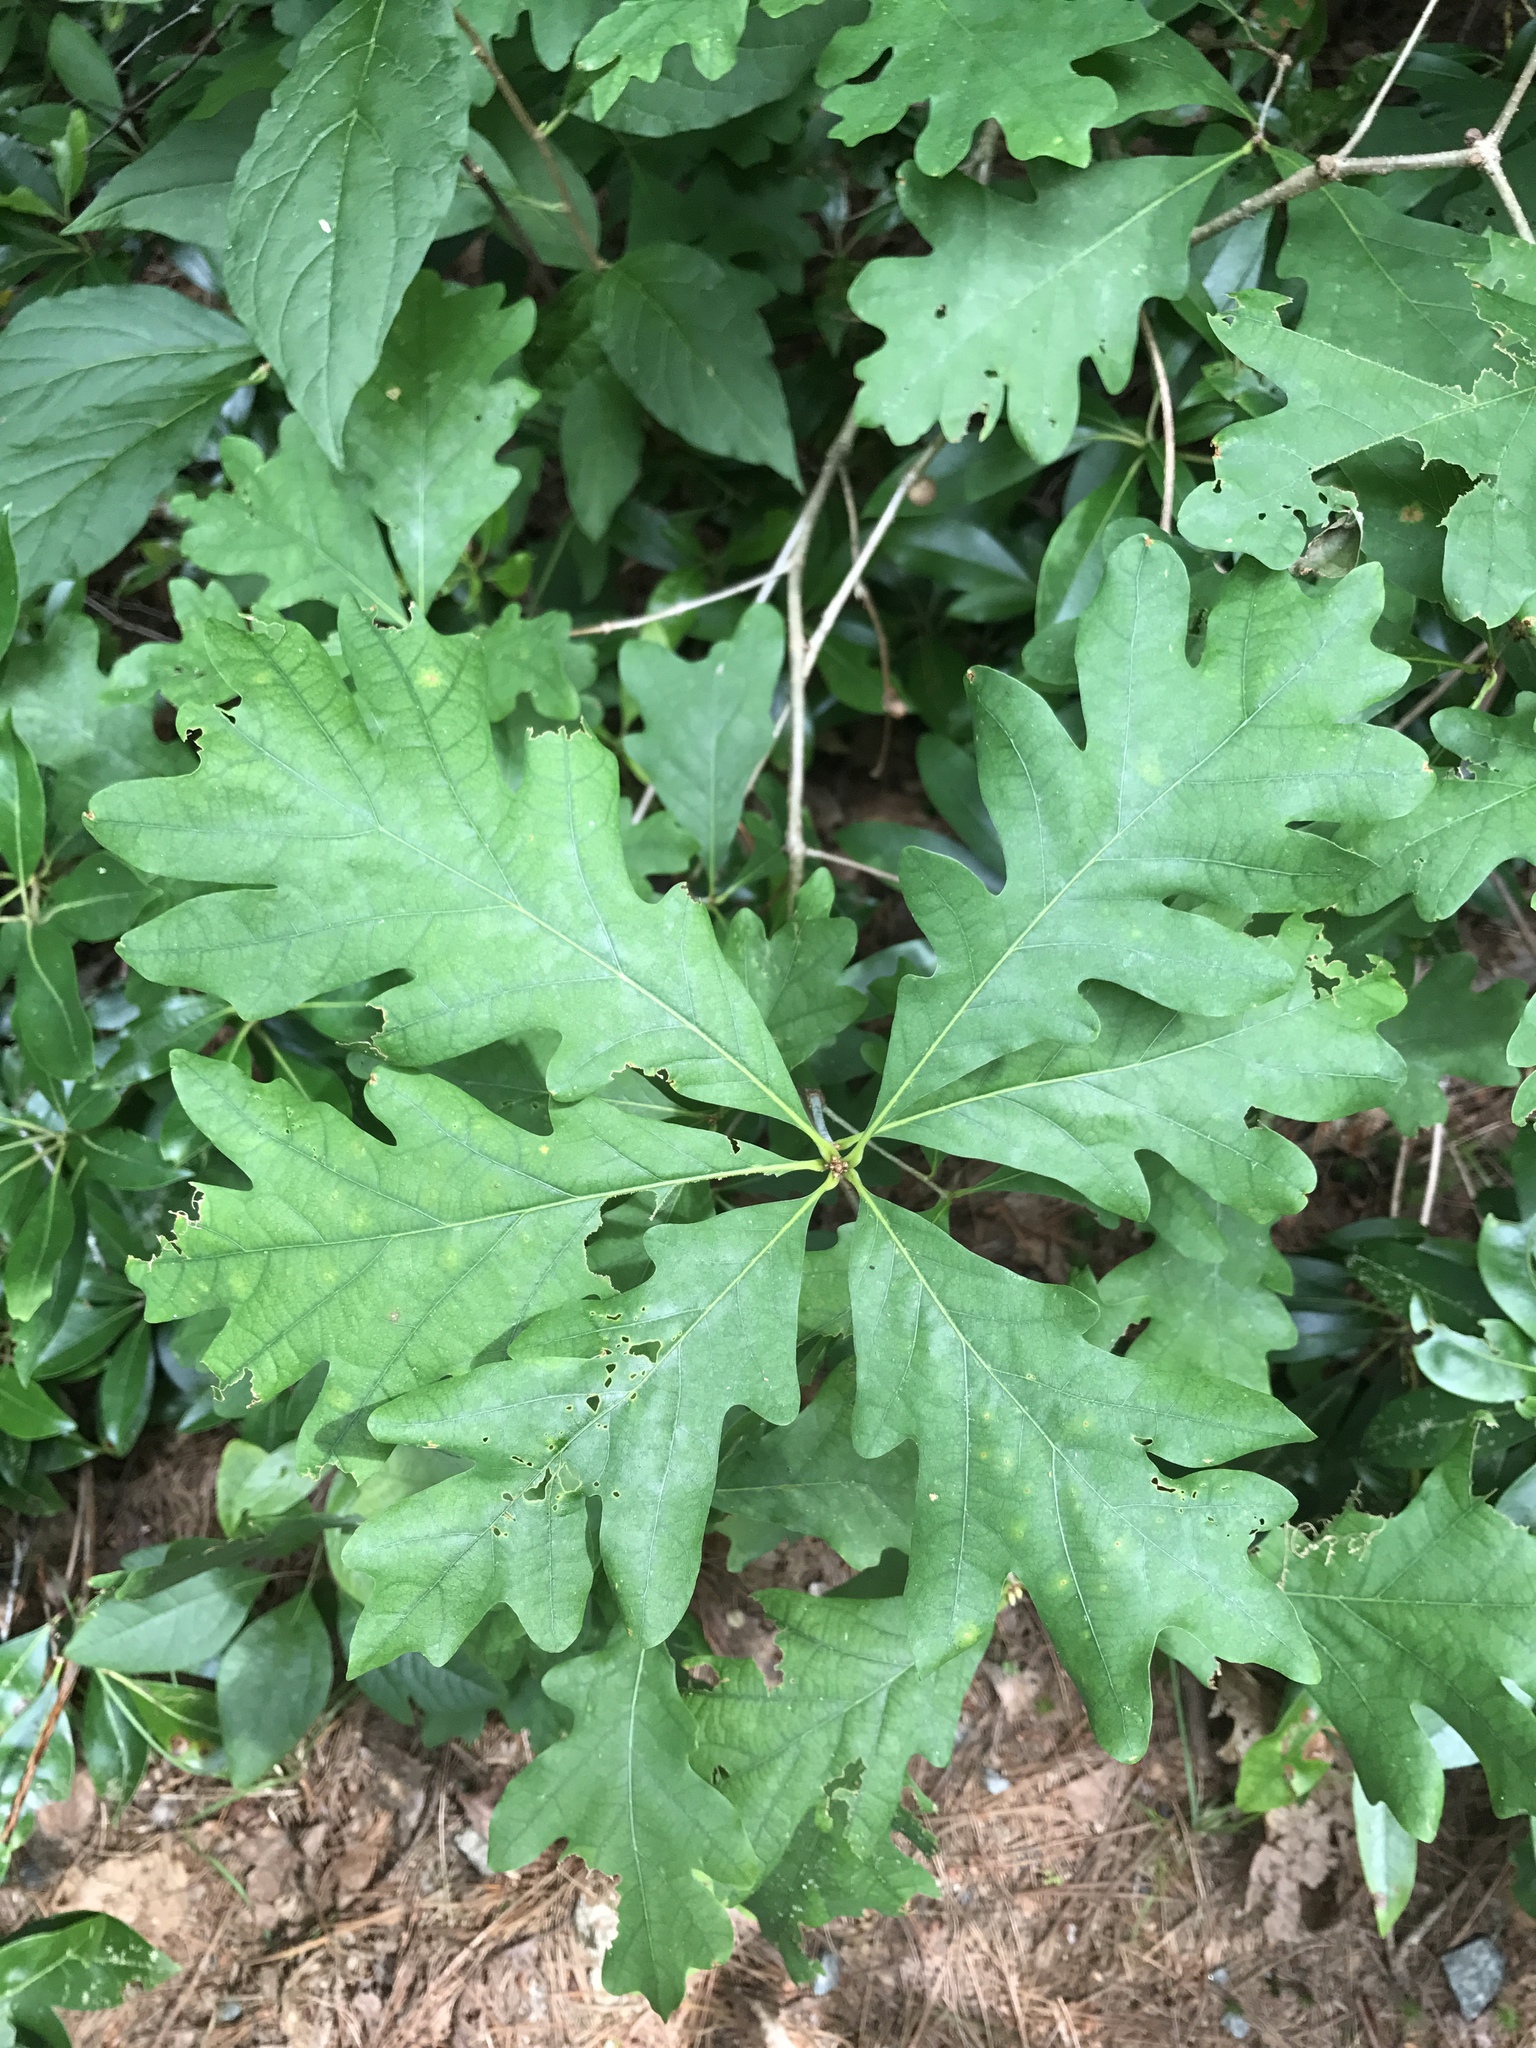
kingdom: Plantae
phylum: Tracheophyta
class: Magnoliopsida
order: Fagales
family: Fagaceae
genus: Quercus
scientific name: Quercus alba
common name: White oak
